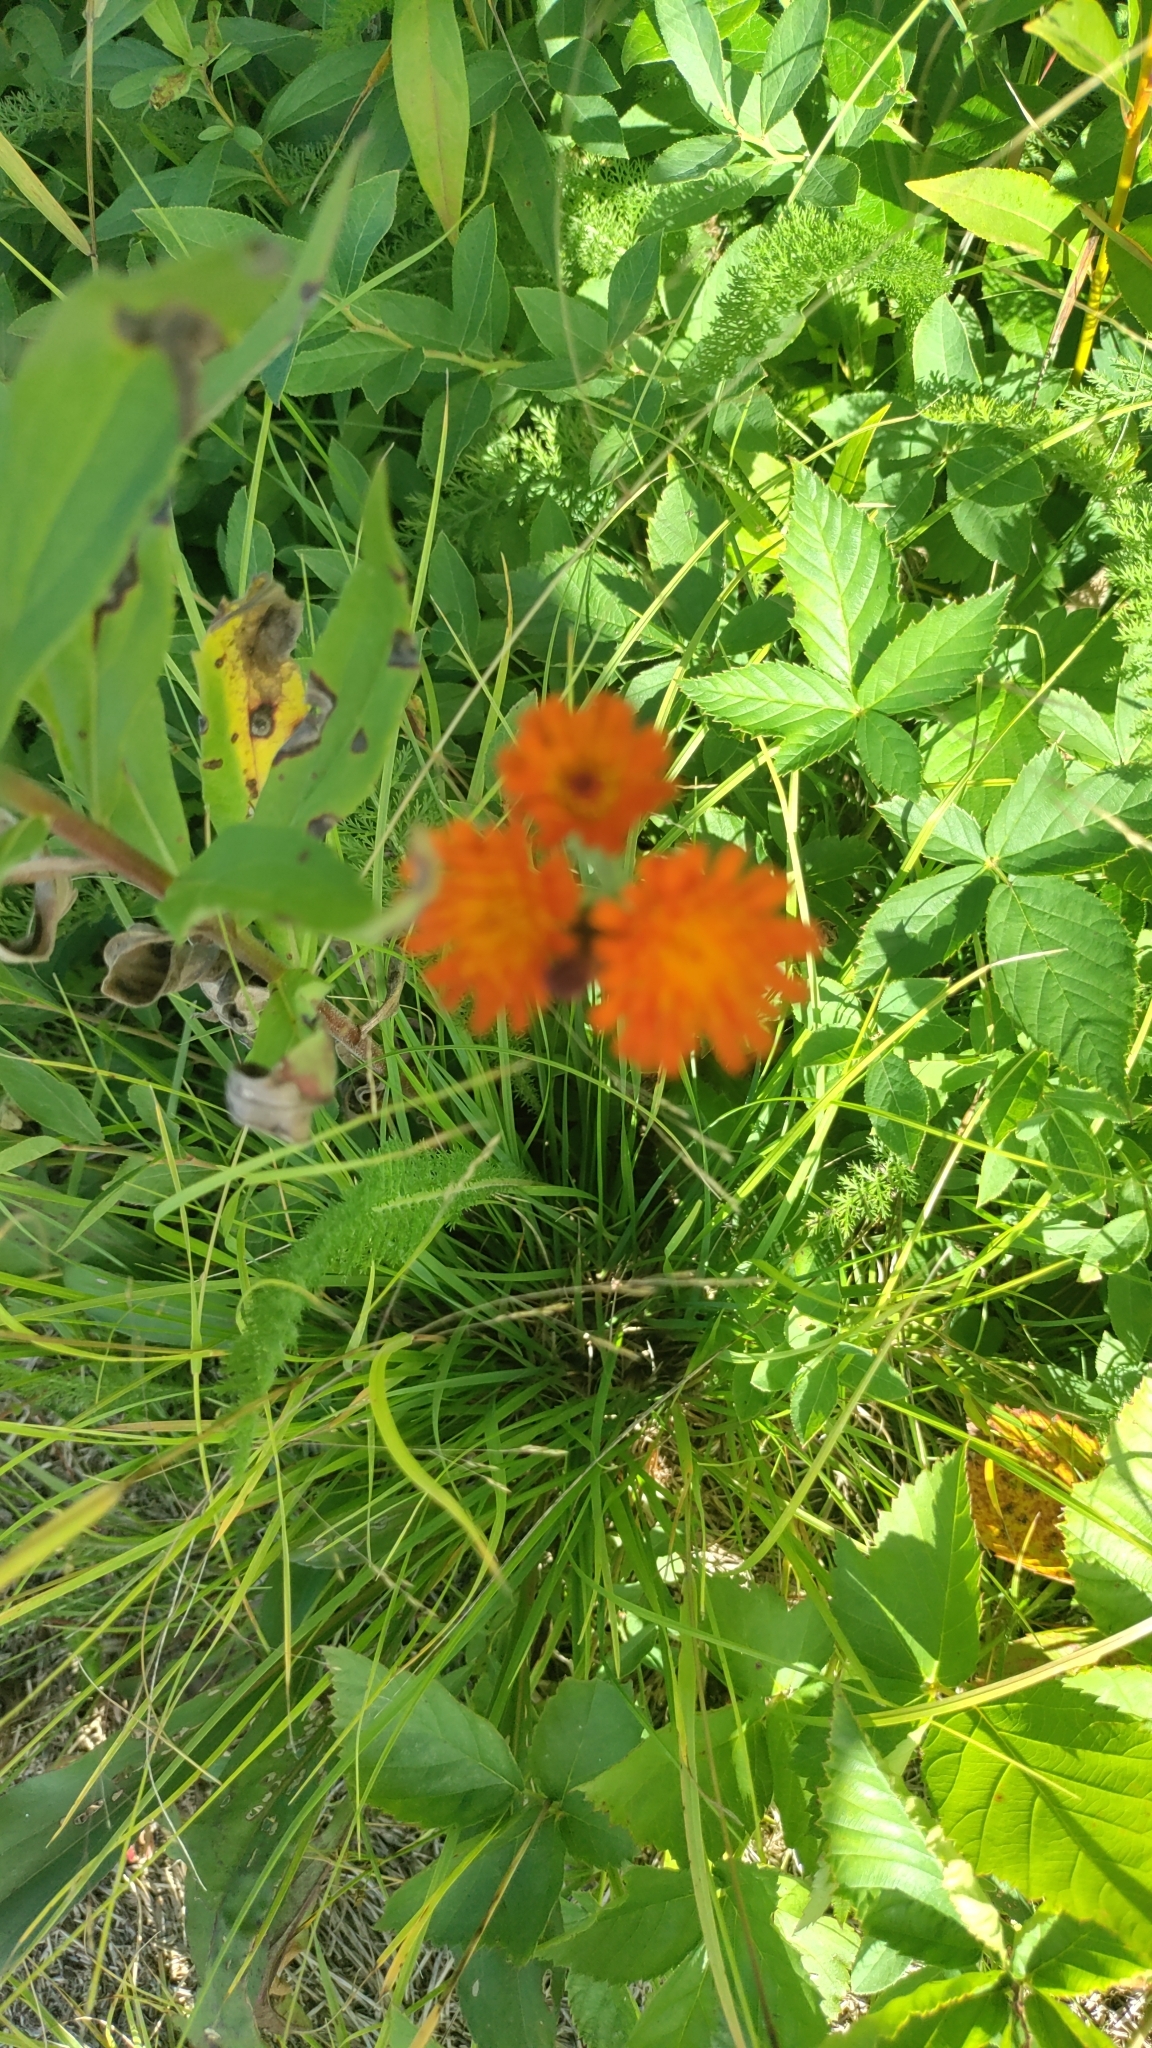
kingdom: Plantae
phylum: Tracheophyta
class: Magnoliopsida
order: Asterales
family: Asteraceae
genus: Pilosella
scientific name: Pilosella aurantiaca
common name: Fox-and-cubs
